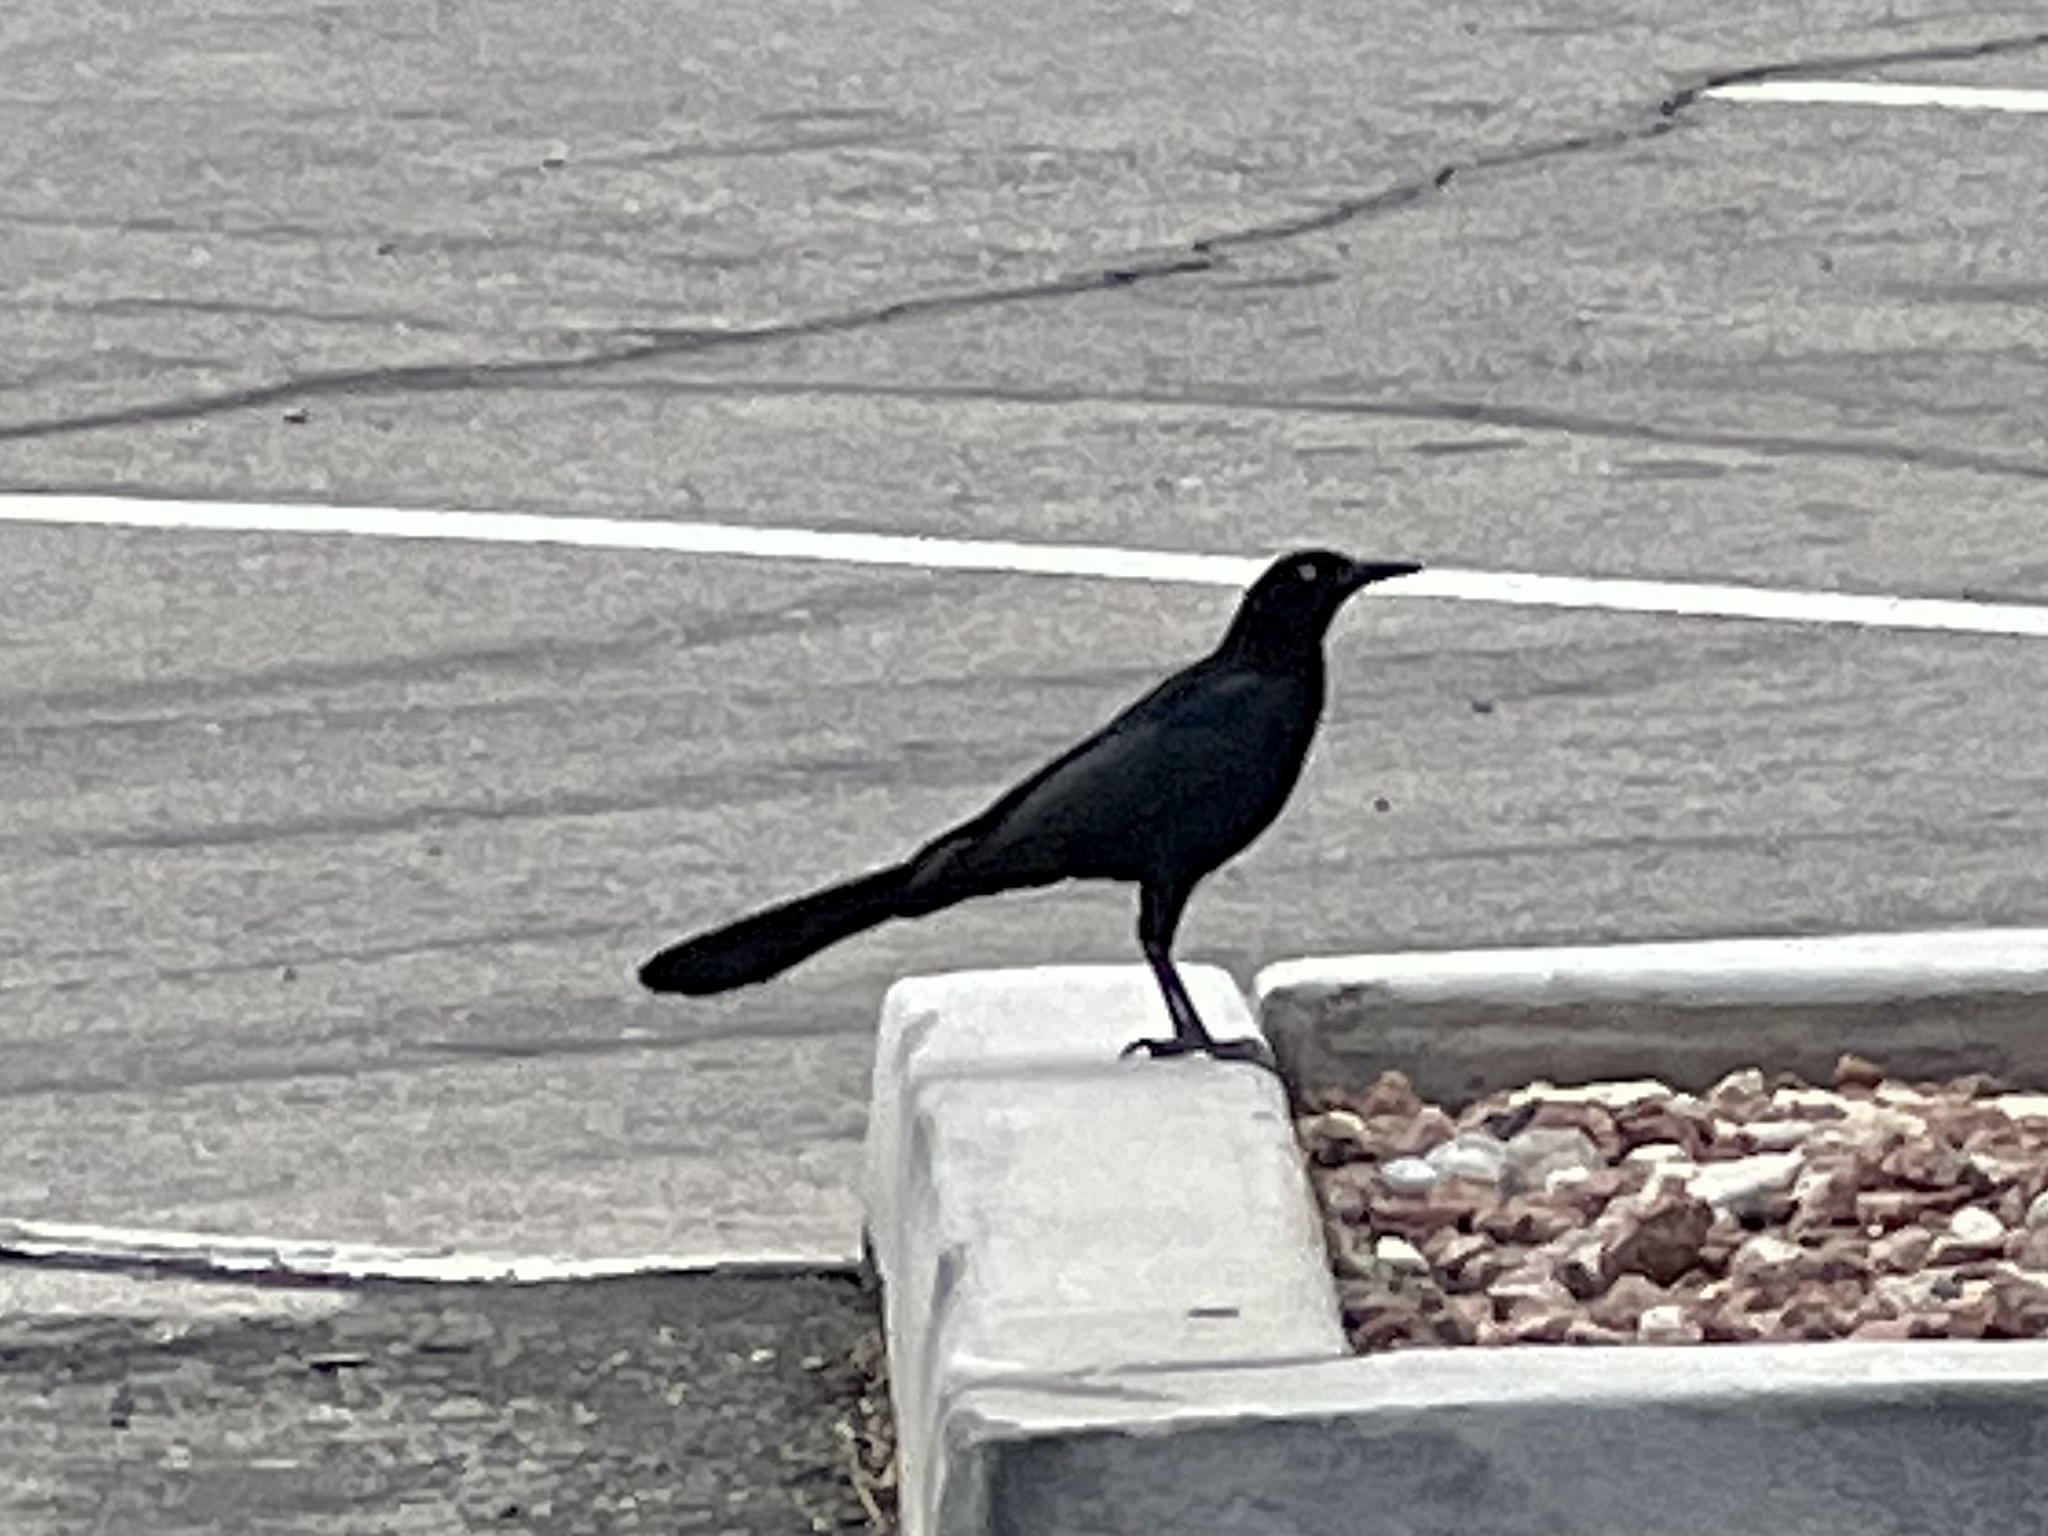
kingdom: Animalia
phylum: Chordata
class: Aves
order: Passeriformes
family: Icteridae
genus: Quiscalus
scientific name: Quiscalus mexicanus
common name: Great-tailed grackle
